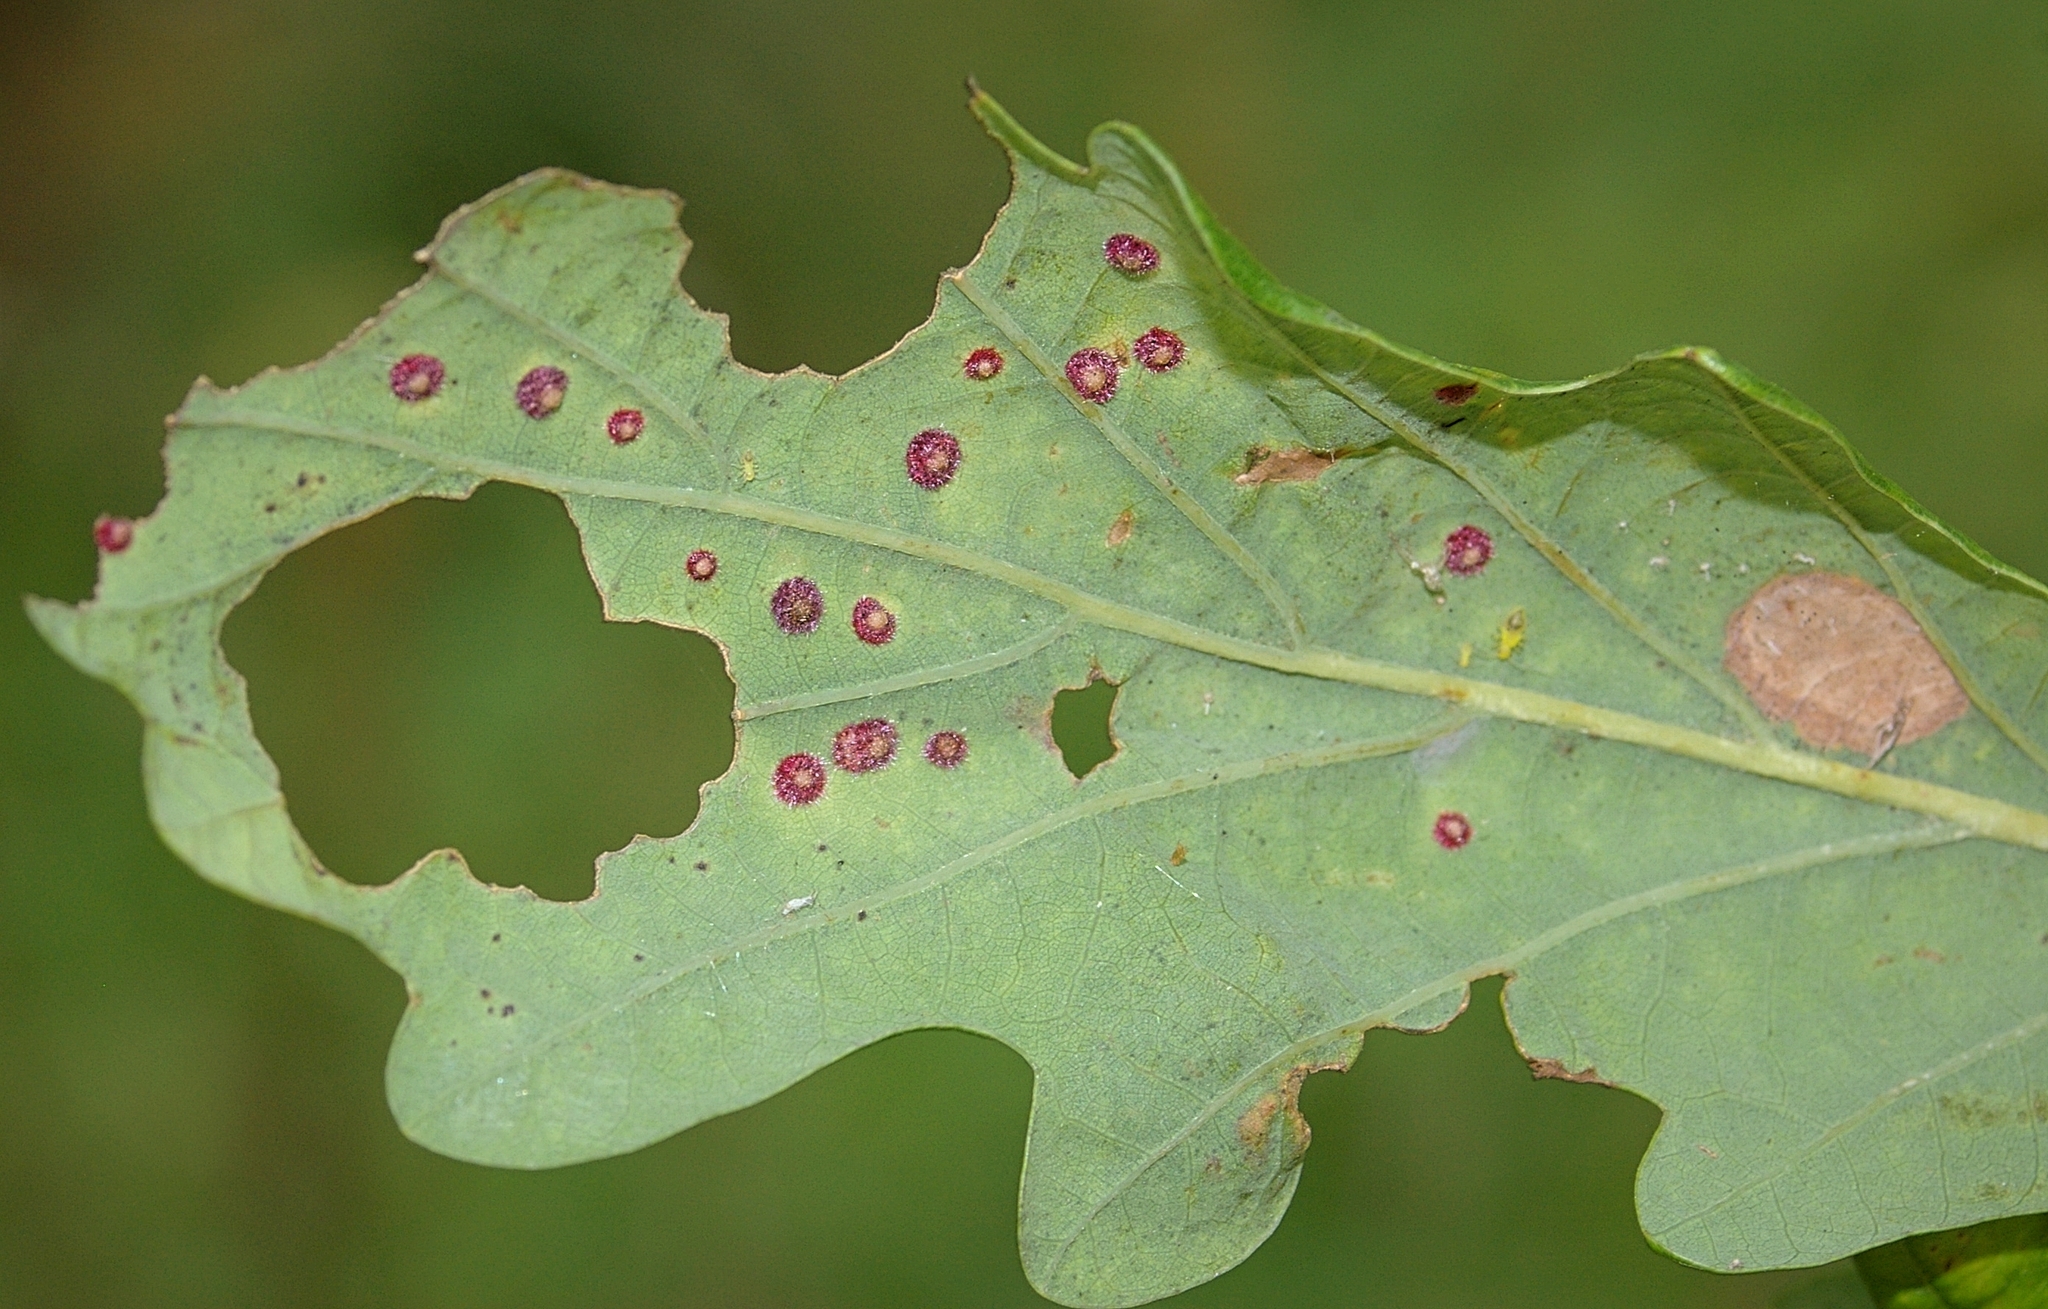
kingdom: Animalia
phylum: Arthropoda
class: Insecta
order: Hymenoptera
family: Cynipidae
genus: Neuroterus
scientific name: Neuroterus quercusbaccarum
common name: Common spangle gall
